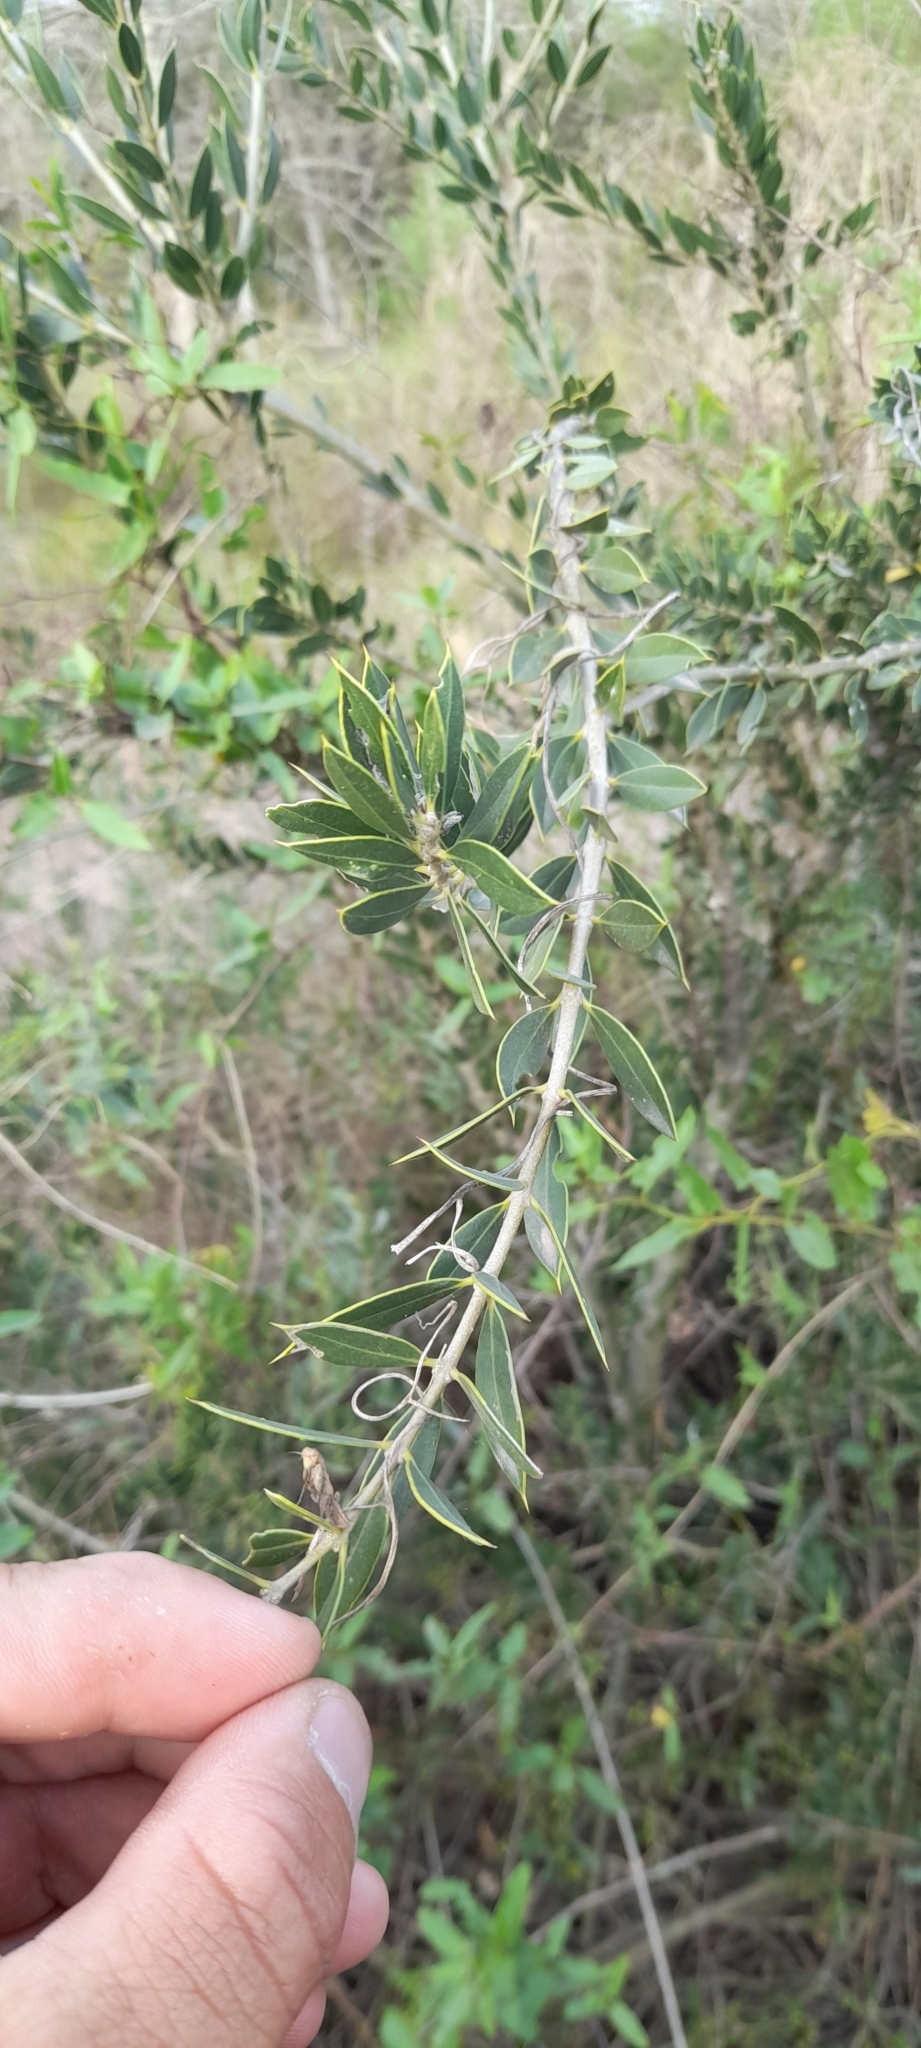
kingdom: Plantae
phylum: Tracheophyta
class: Magnoliopsida
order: Gentianales
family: Apocynaceae
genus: Aspidosperma
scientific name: Aspidosperma quebracho-blanco
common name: White quebracho
